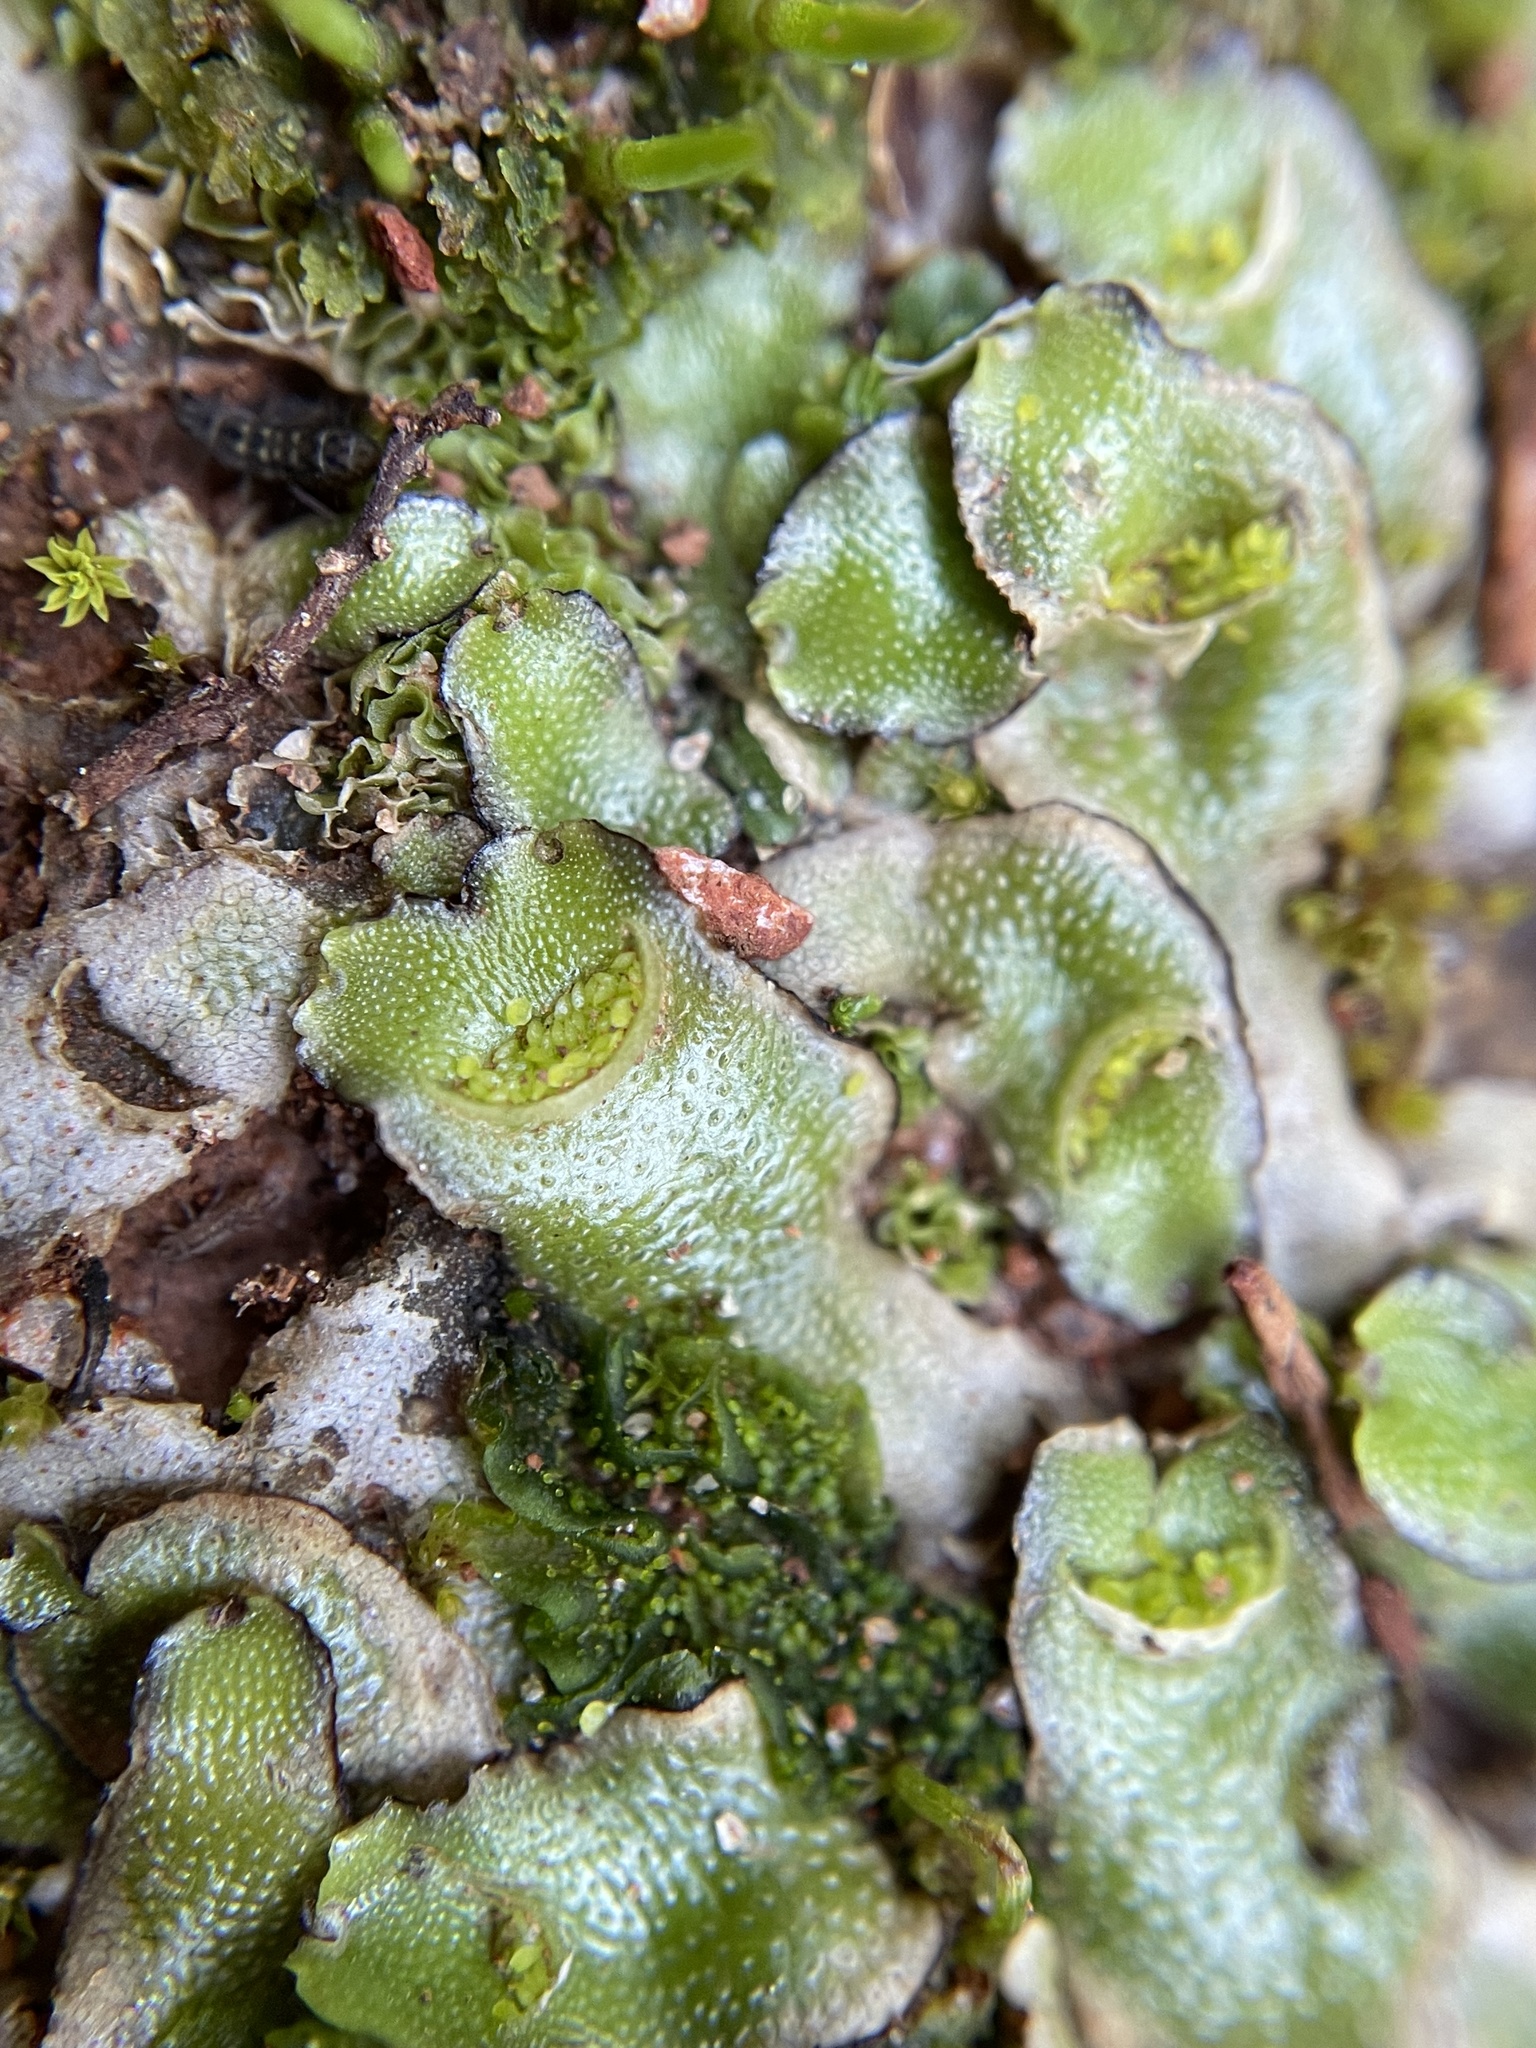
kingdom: Plantae
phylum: Marchantiophyta
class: Marchantiopsida
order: Lunulariales
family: Lunulariaceae
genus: Lunularia
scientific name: Lunularia cruciata
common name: Crescent-cup liverwort
